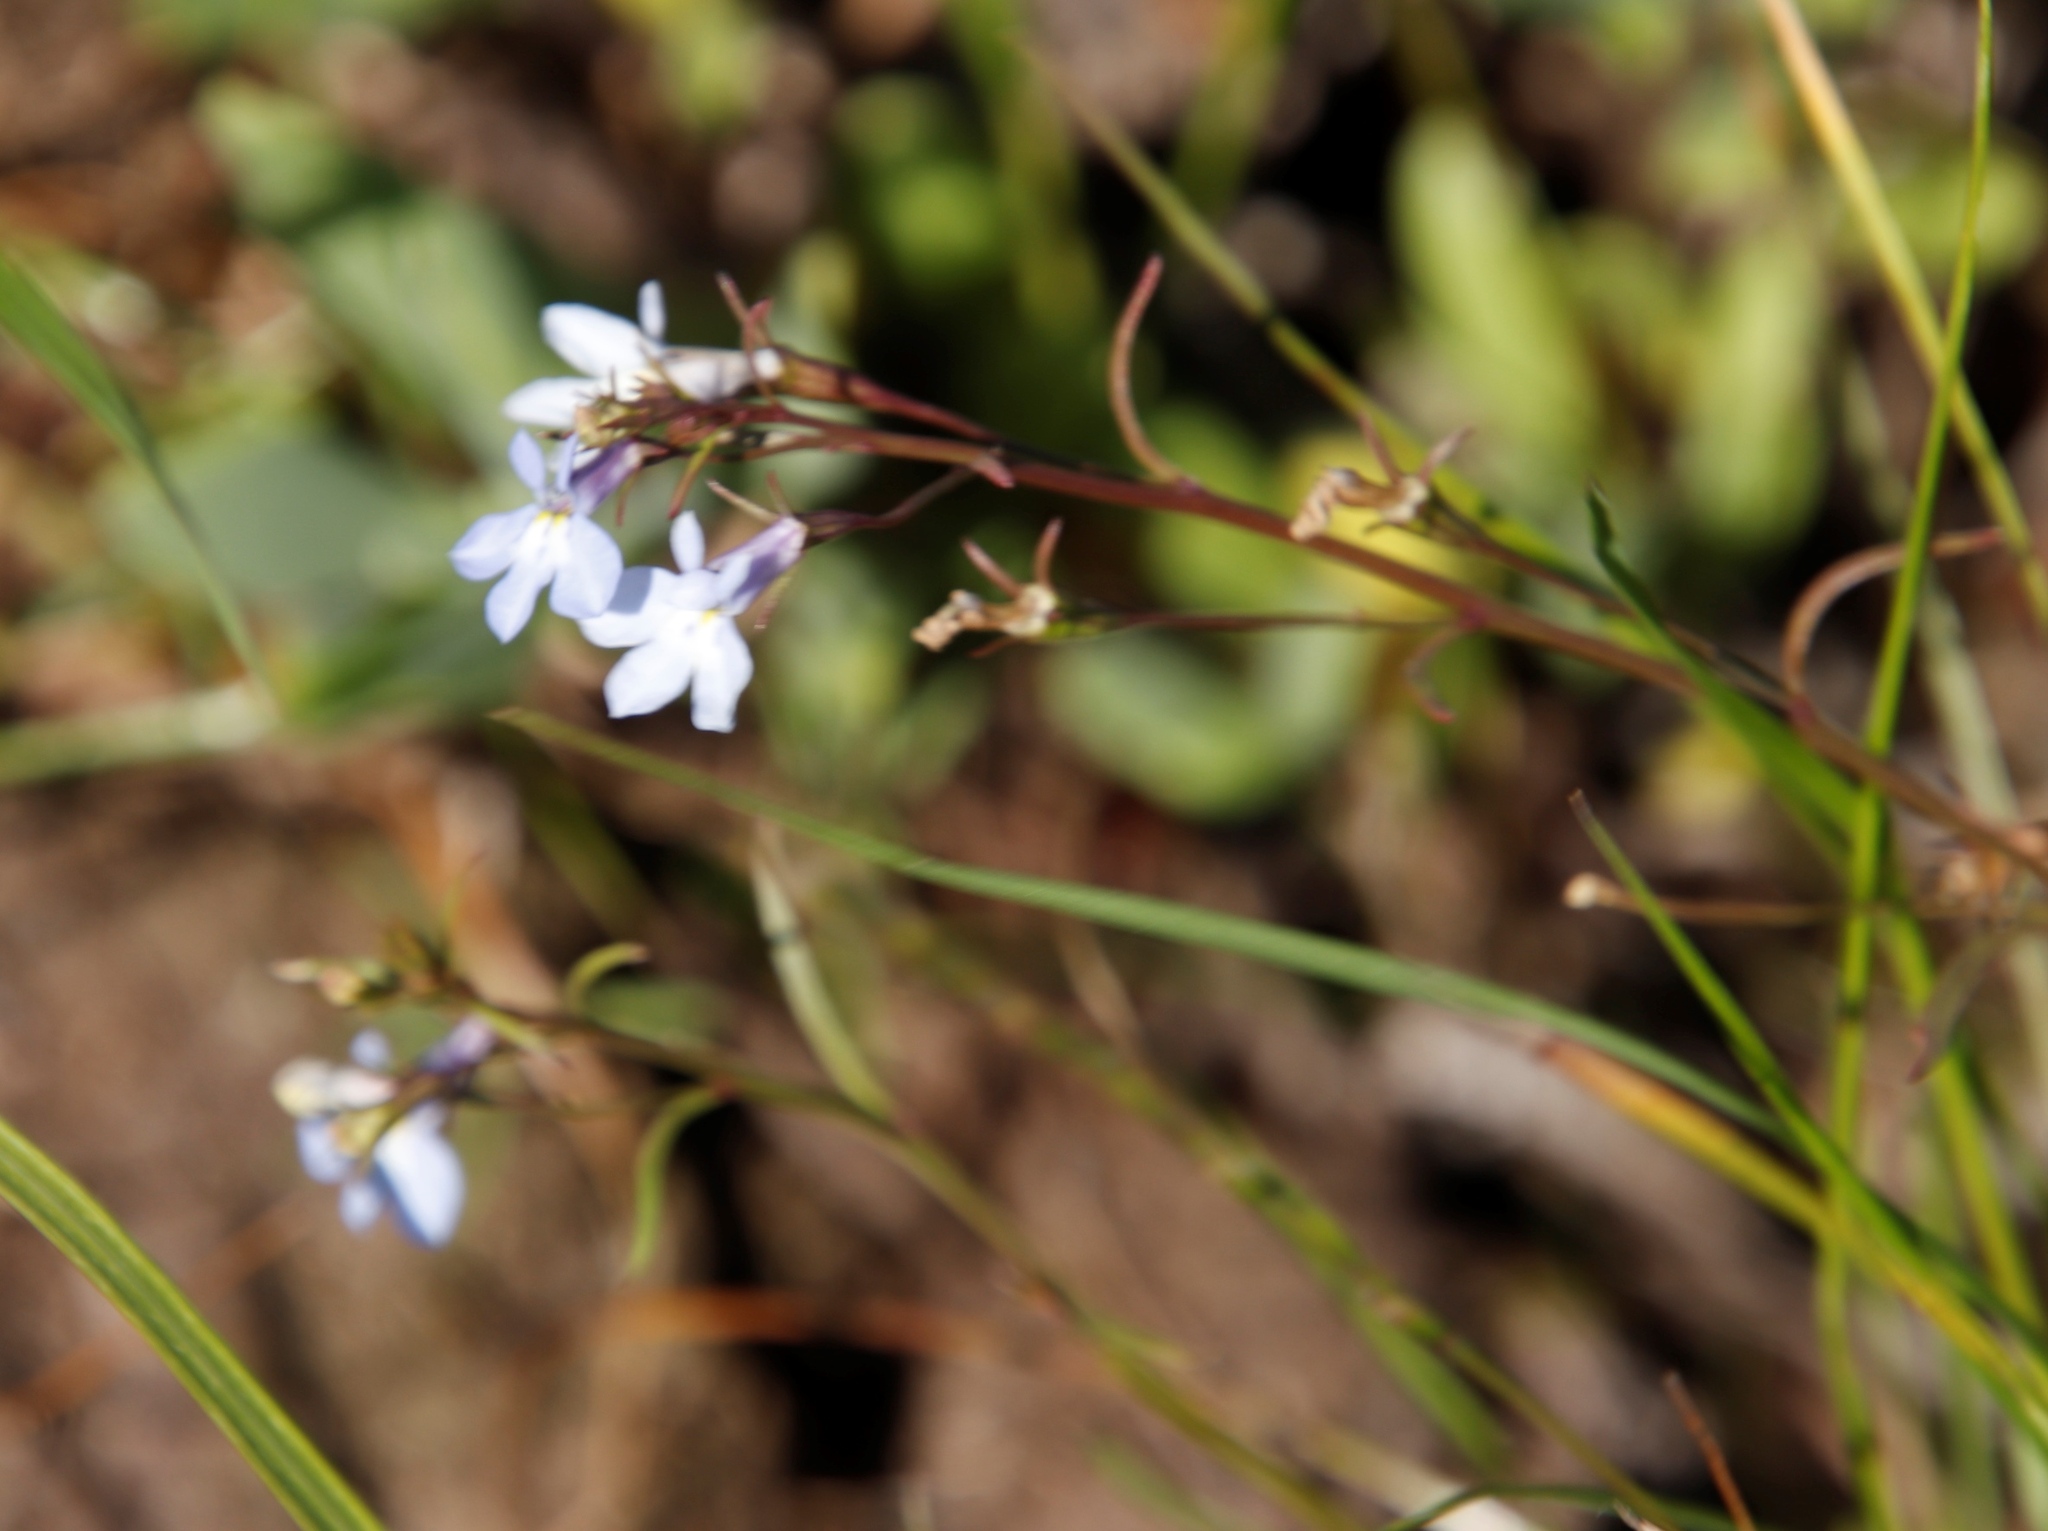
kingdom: Plantae
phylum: Tracheophyta
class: Magnoliopsida
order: Asterales
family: Campanulaceae
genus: Lobelia
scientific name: Lobelia erinus
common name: Edging lobelia
